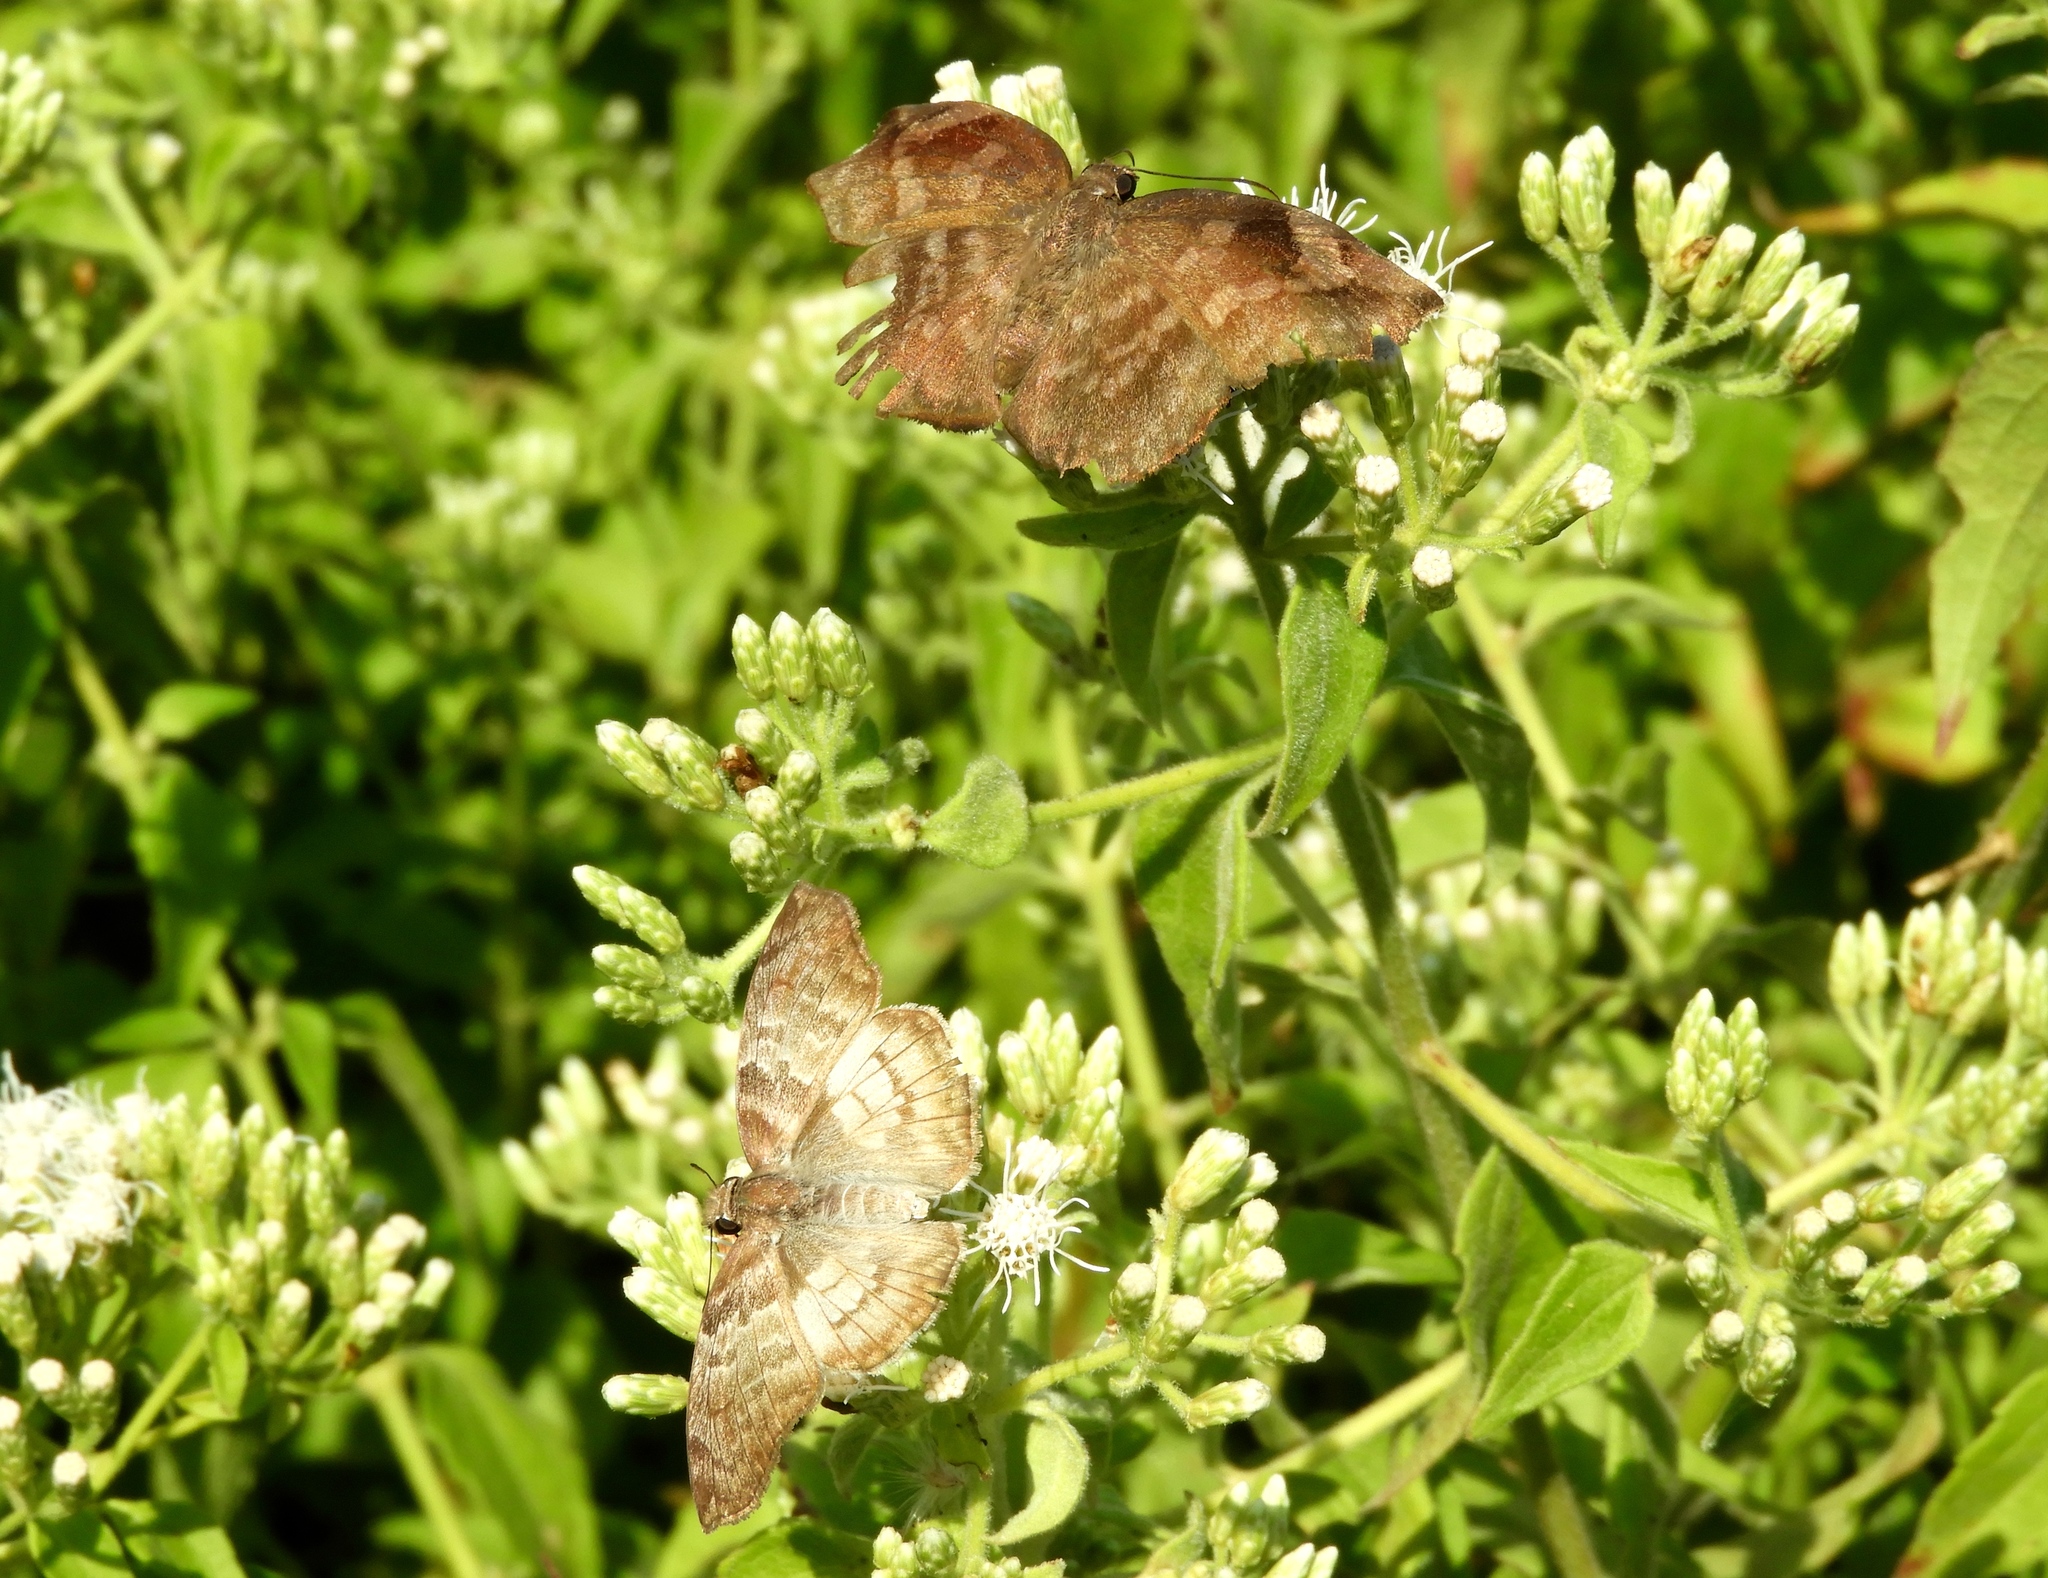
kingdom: Animalia
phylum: Arthropoda
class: Insecta
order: Lepidoptera
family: Hesperiidae
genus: Mylon
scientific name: Mylon pelopidas
